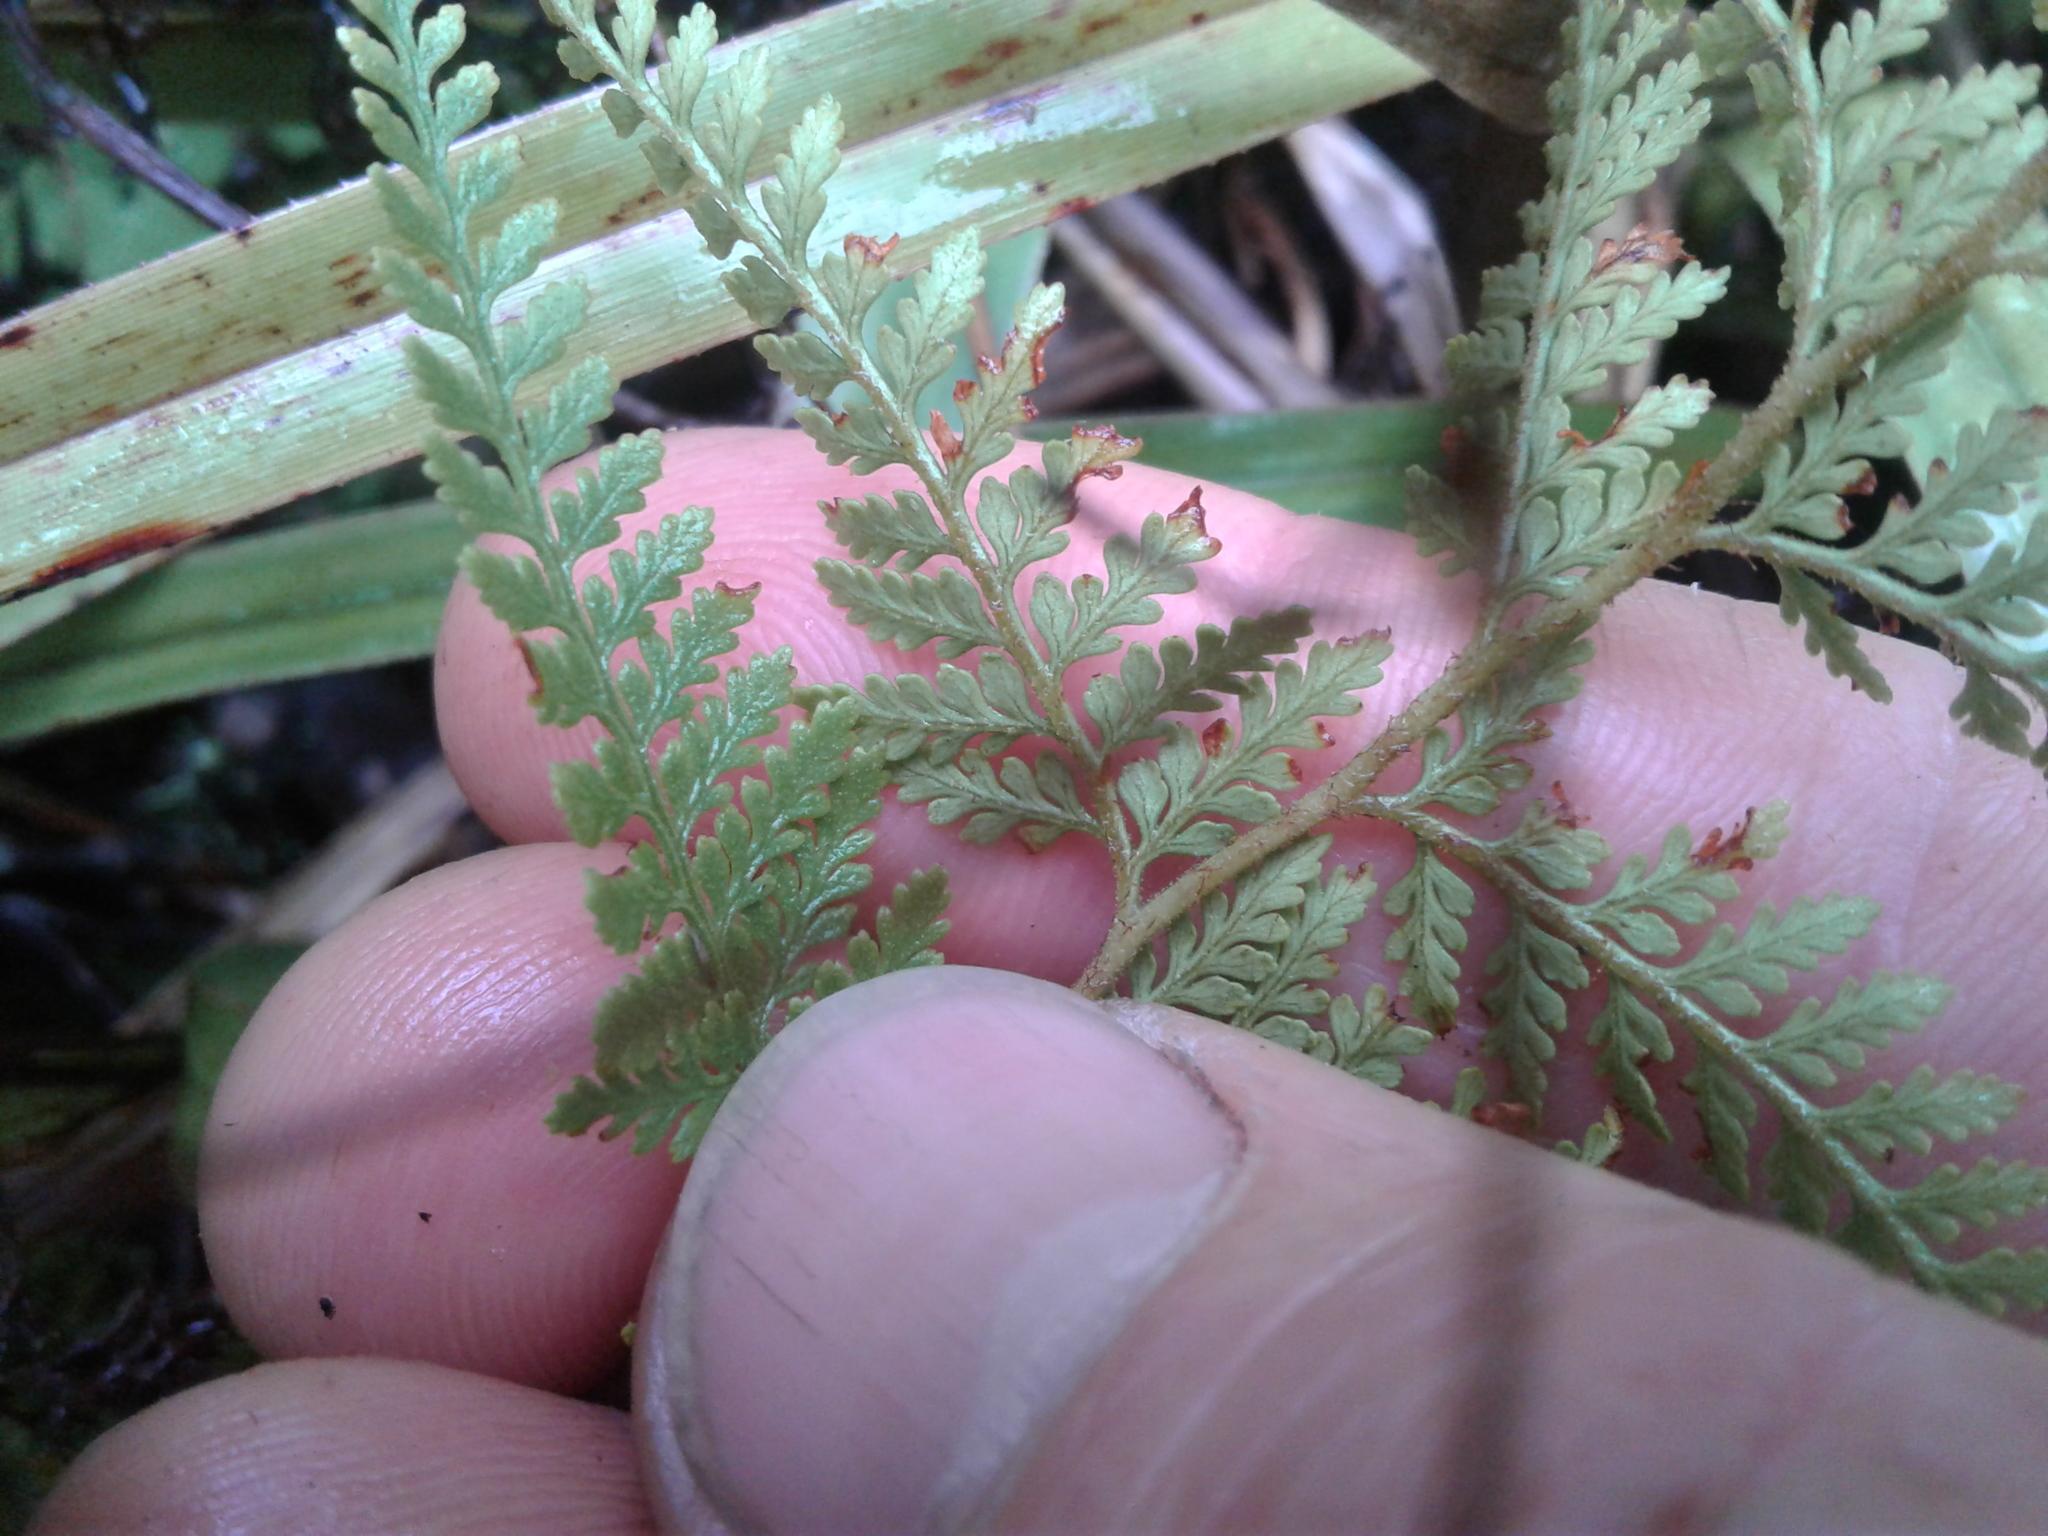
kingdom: Plantae
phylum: Tracheophyta
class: Polypodiopsida
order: Polypodiales
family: Dennstaedtiaceae
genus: Paesia
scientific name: Paesia scaberula
